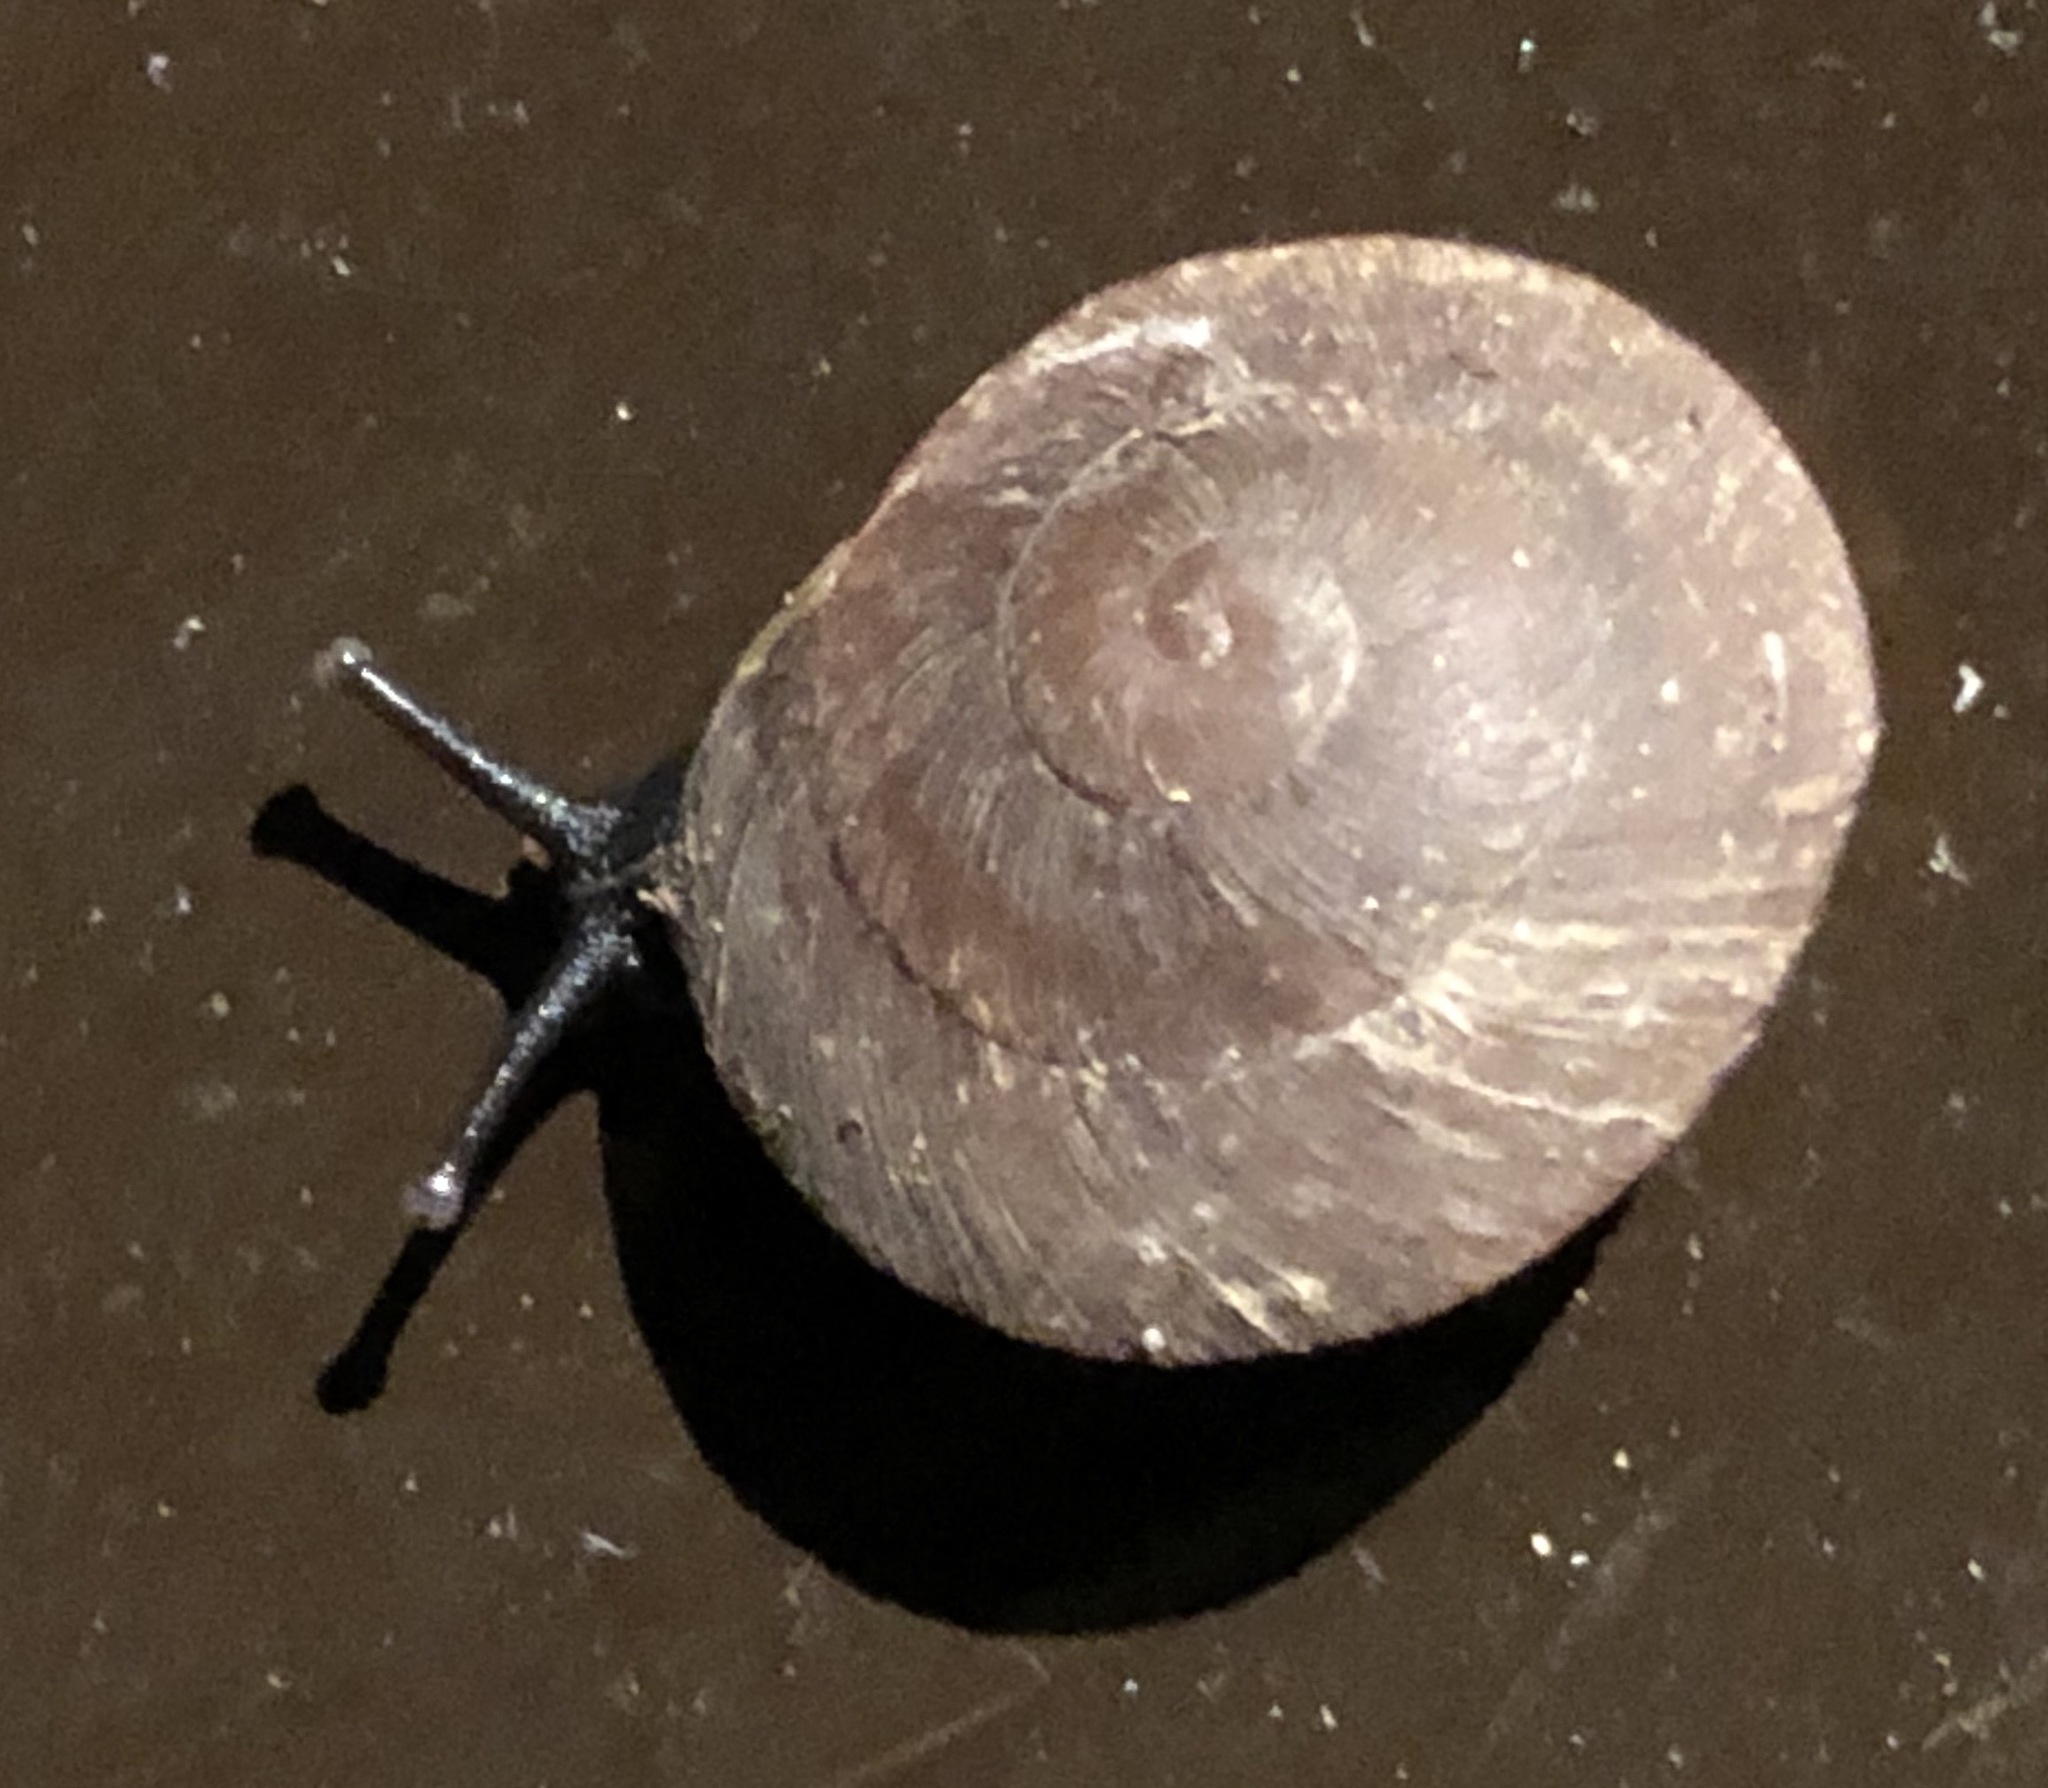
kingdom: Animalia
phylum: Mollusca
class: Gastropoda
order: Stylommatophora
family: Solaropsidae
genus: Caracolus
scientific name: Caracolus carocolla
